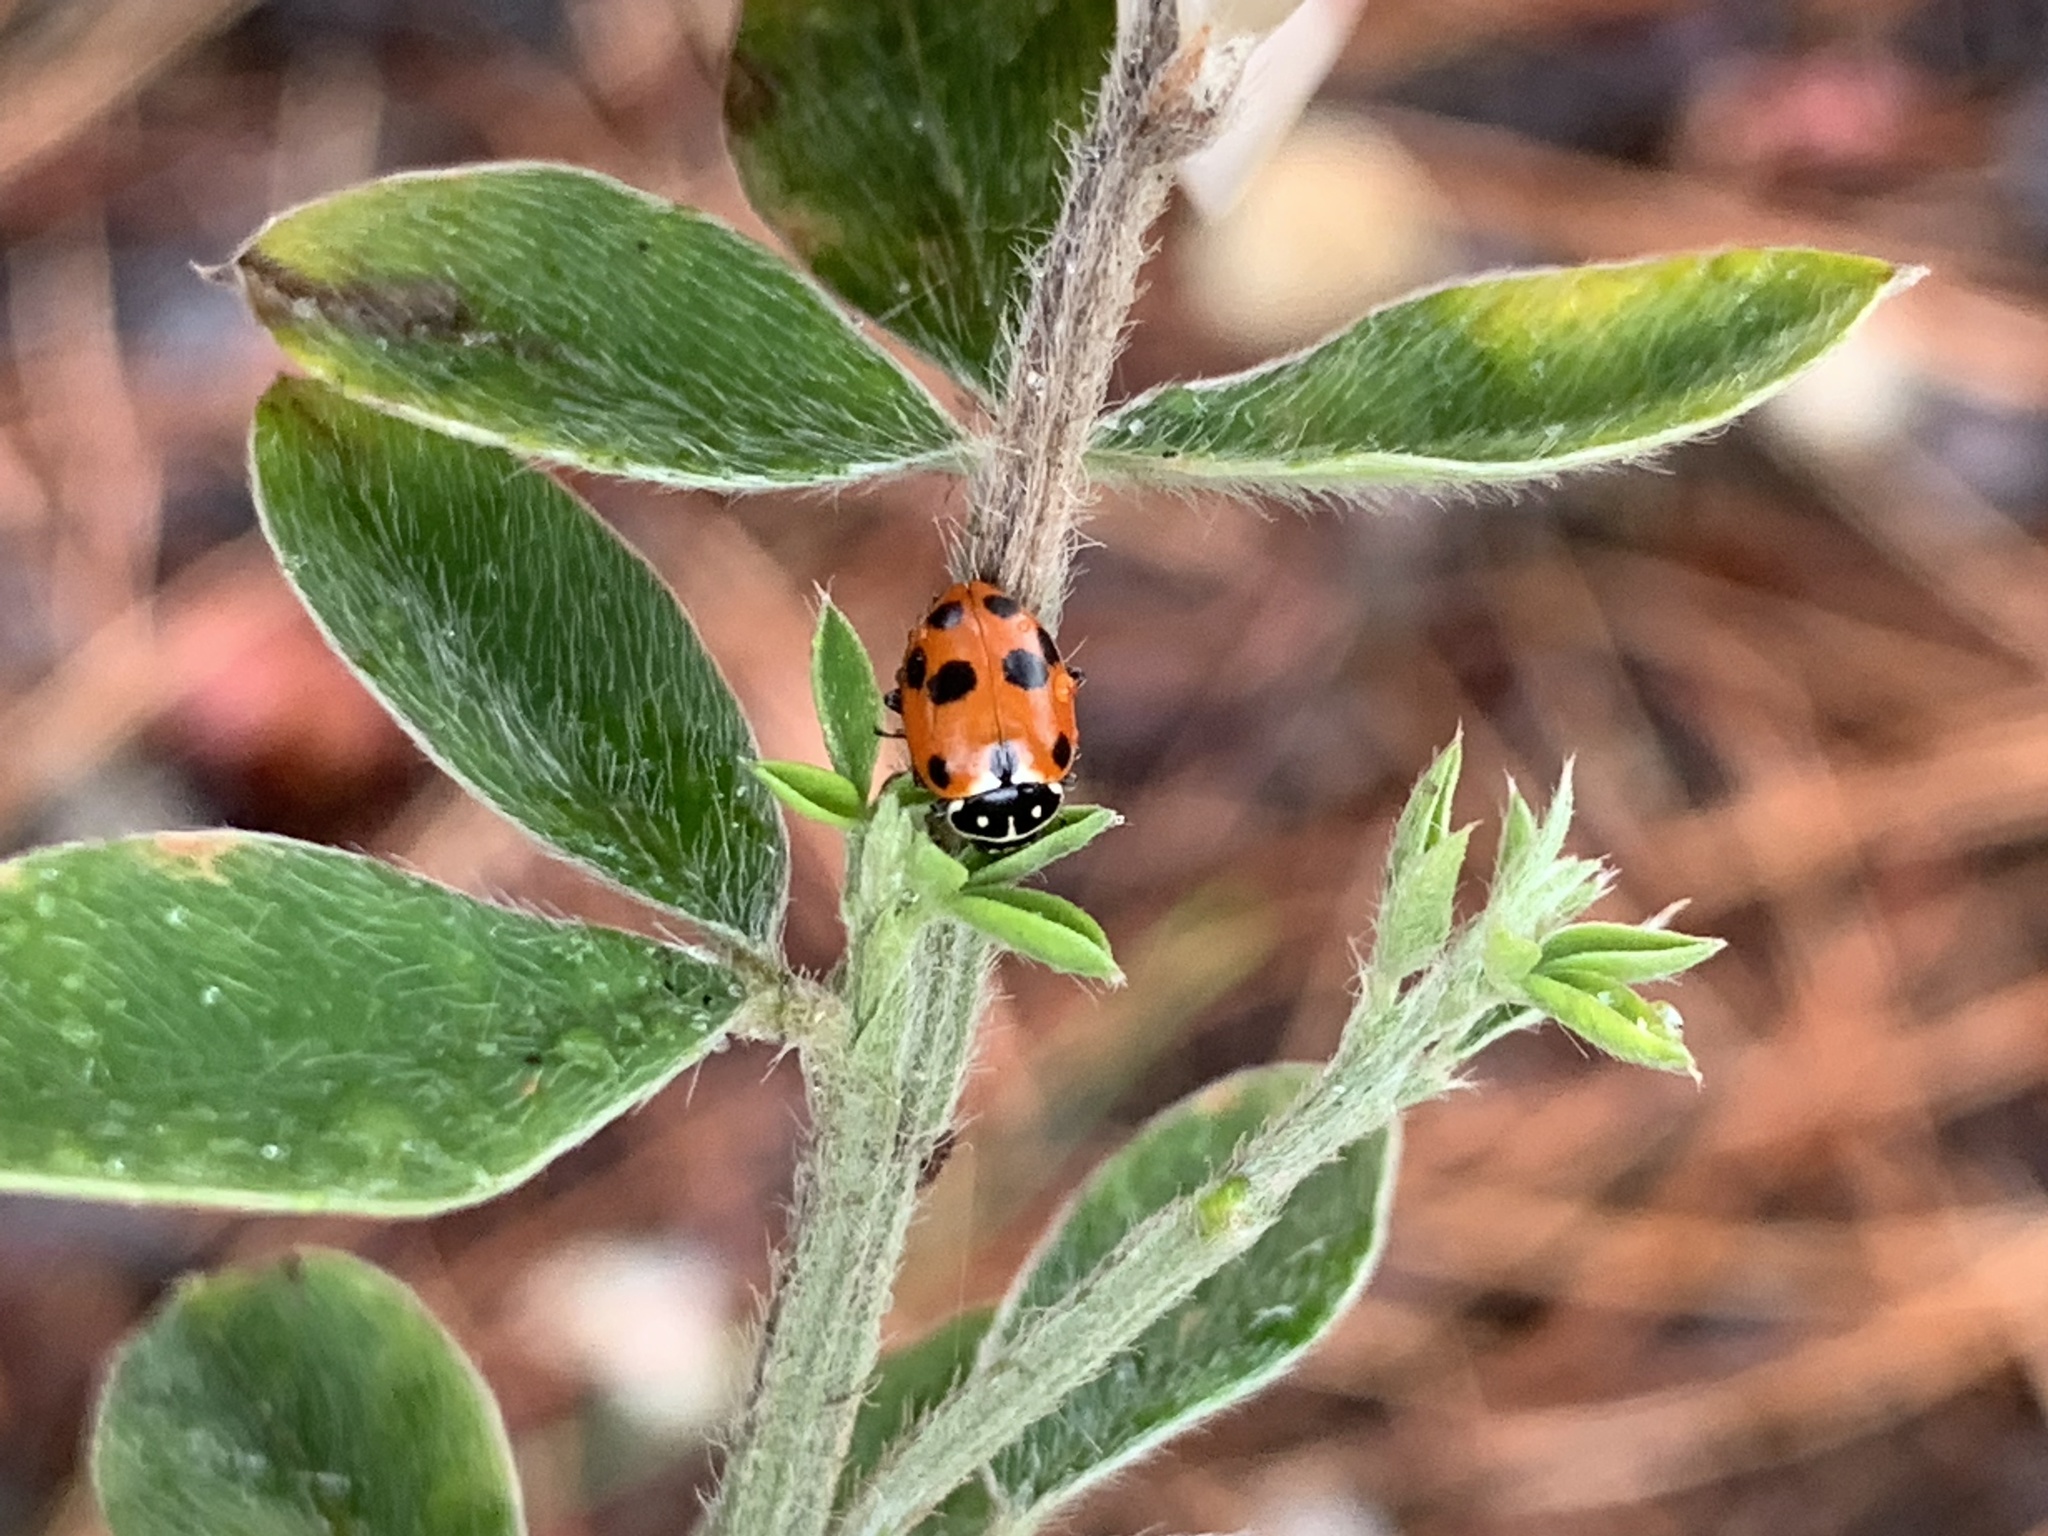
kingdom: Animalia
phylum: Arthropoda
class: Insecta
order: Coleoptera
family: Coccinellidae
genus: Hippodamia
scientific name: Hippodamia variegata
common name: Ladybird beetle
